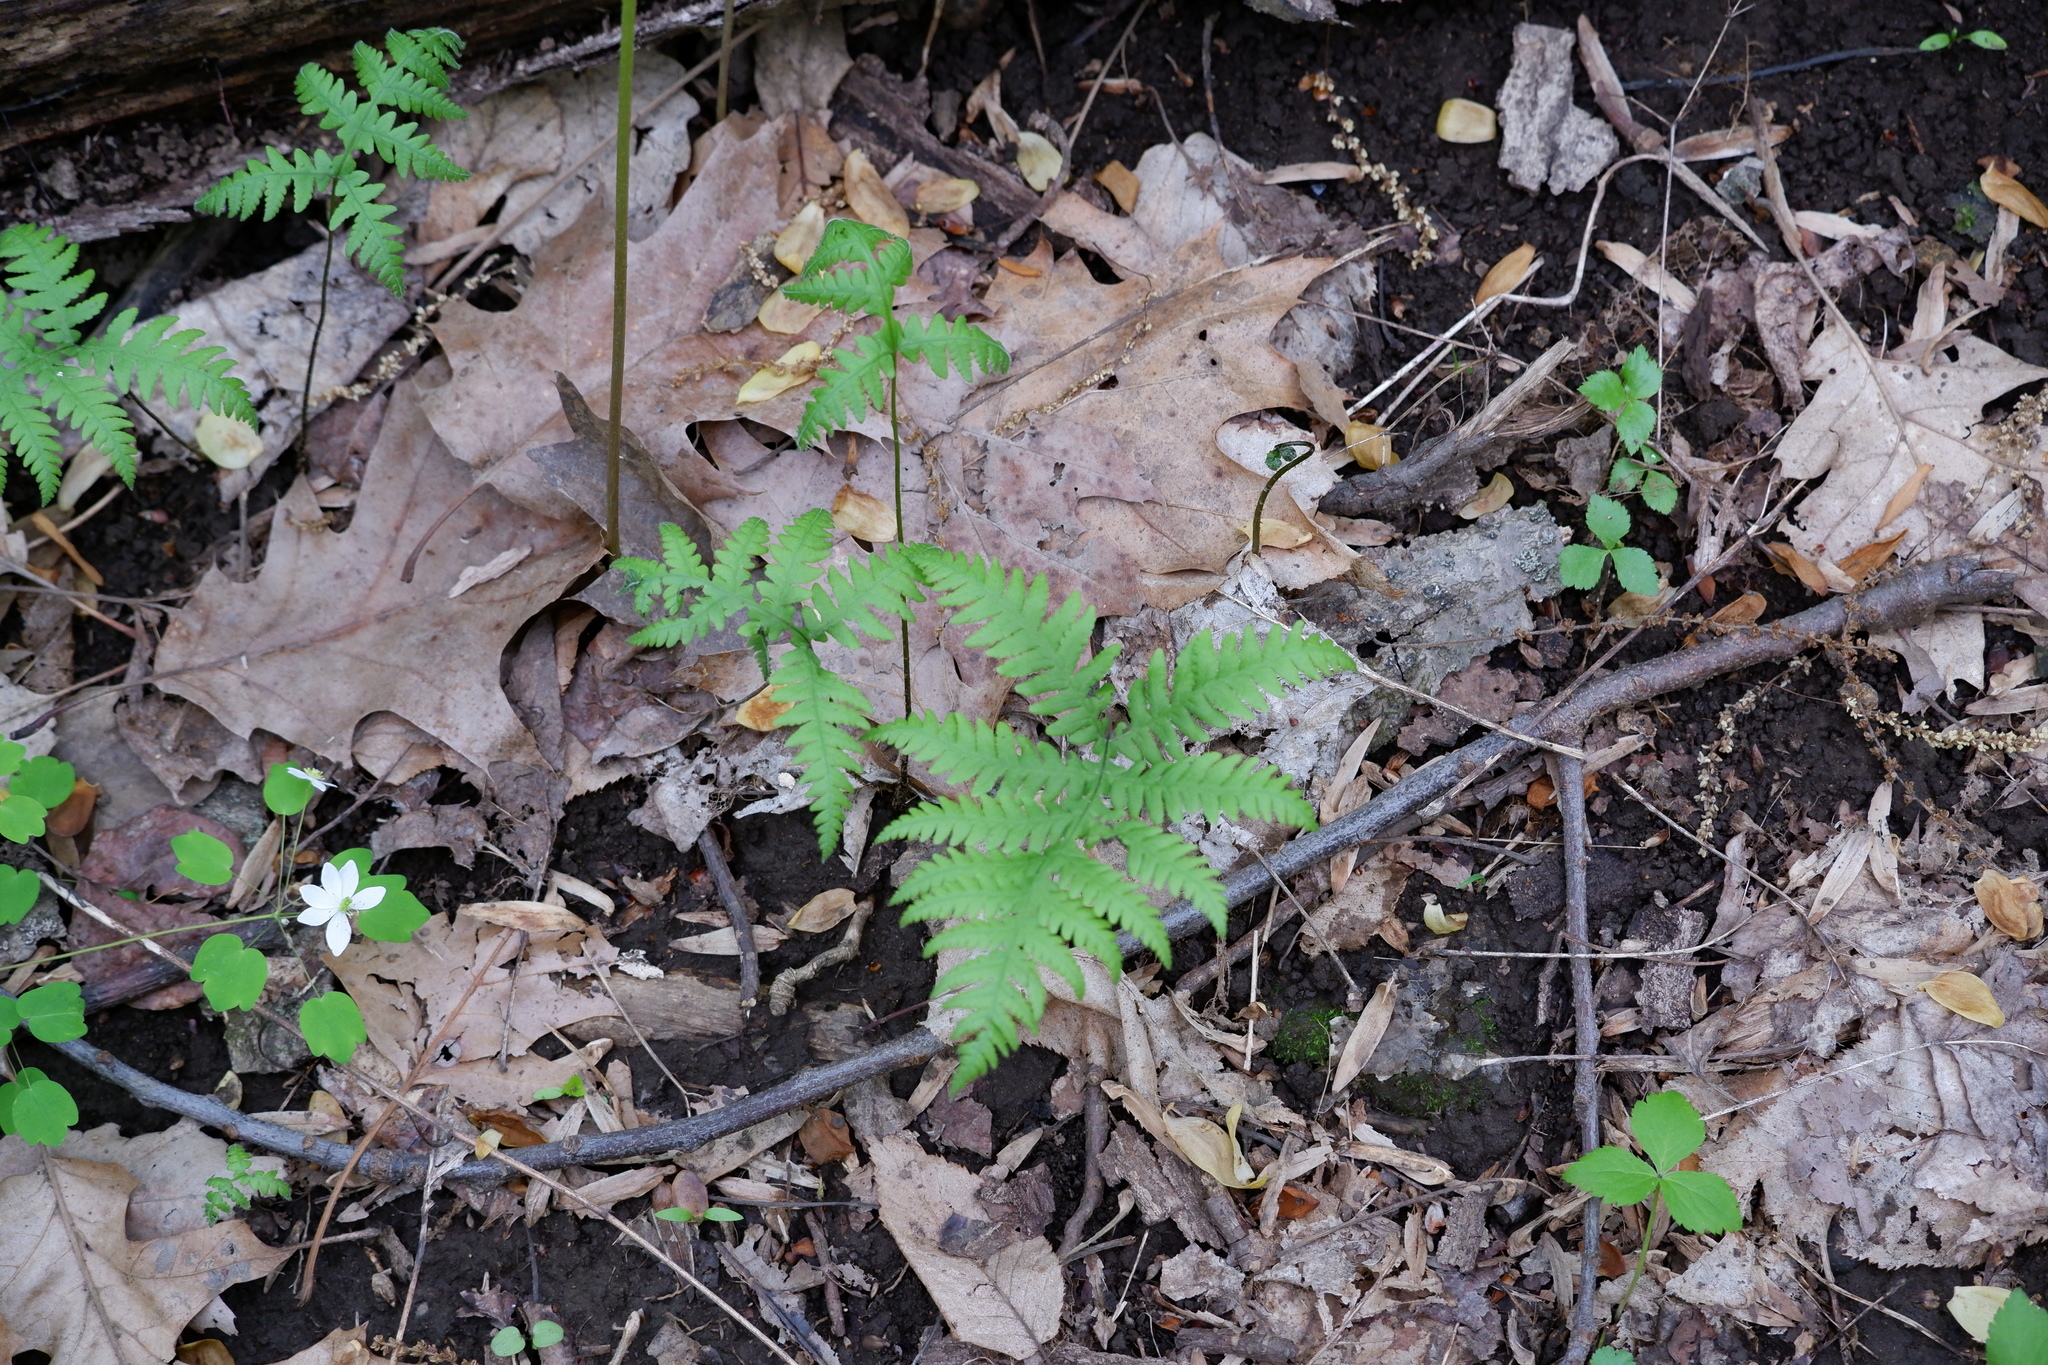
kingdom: Plantae
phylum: Tracheophyta
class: Polypodiopsida
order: Polypodiales
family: Thelypteridaceae
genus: Phegopteris
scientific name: Phegopteris hexagonoptera
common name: Broad beech fern
